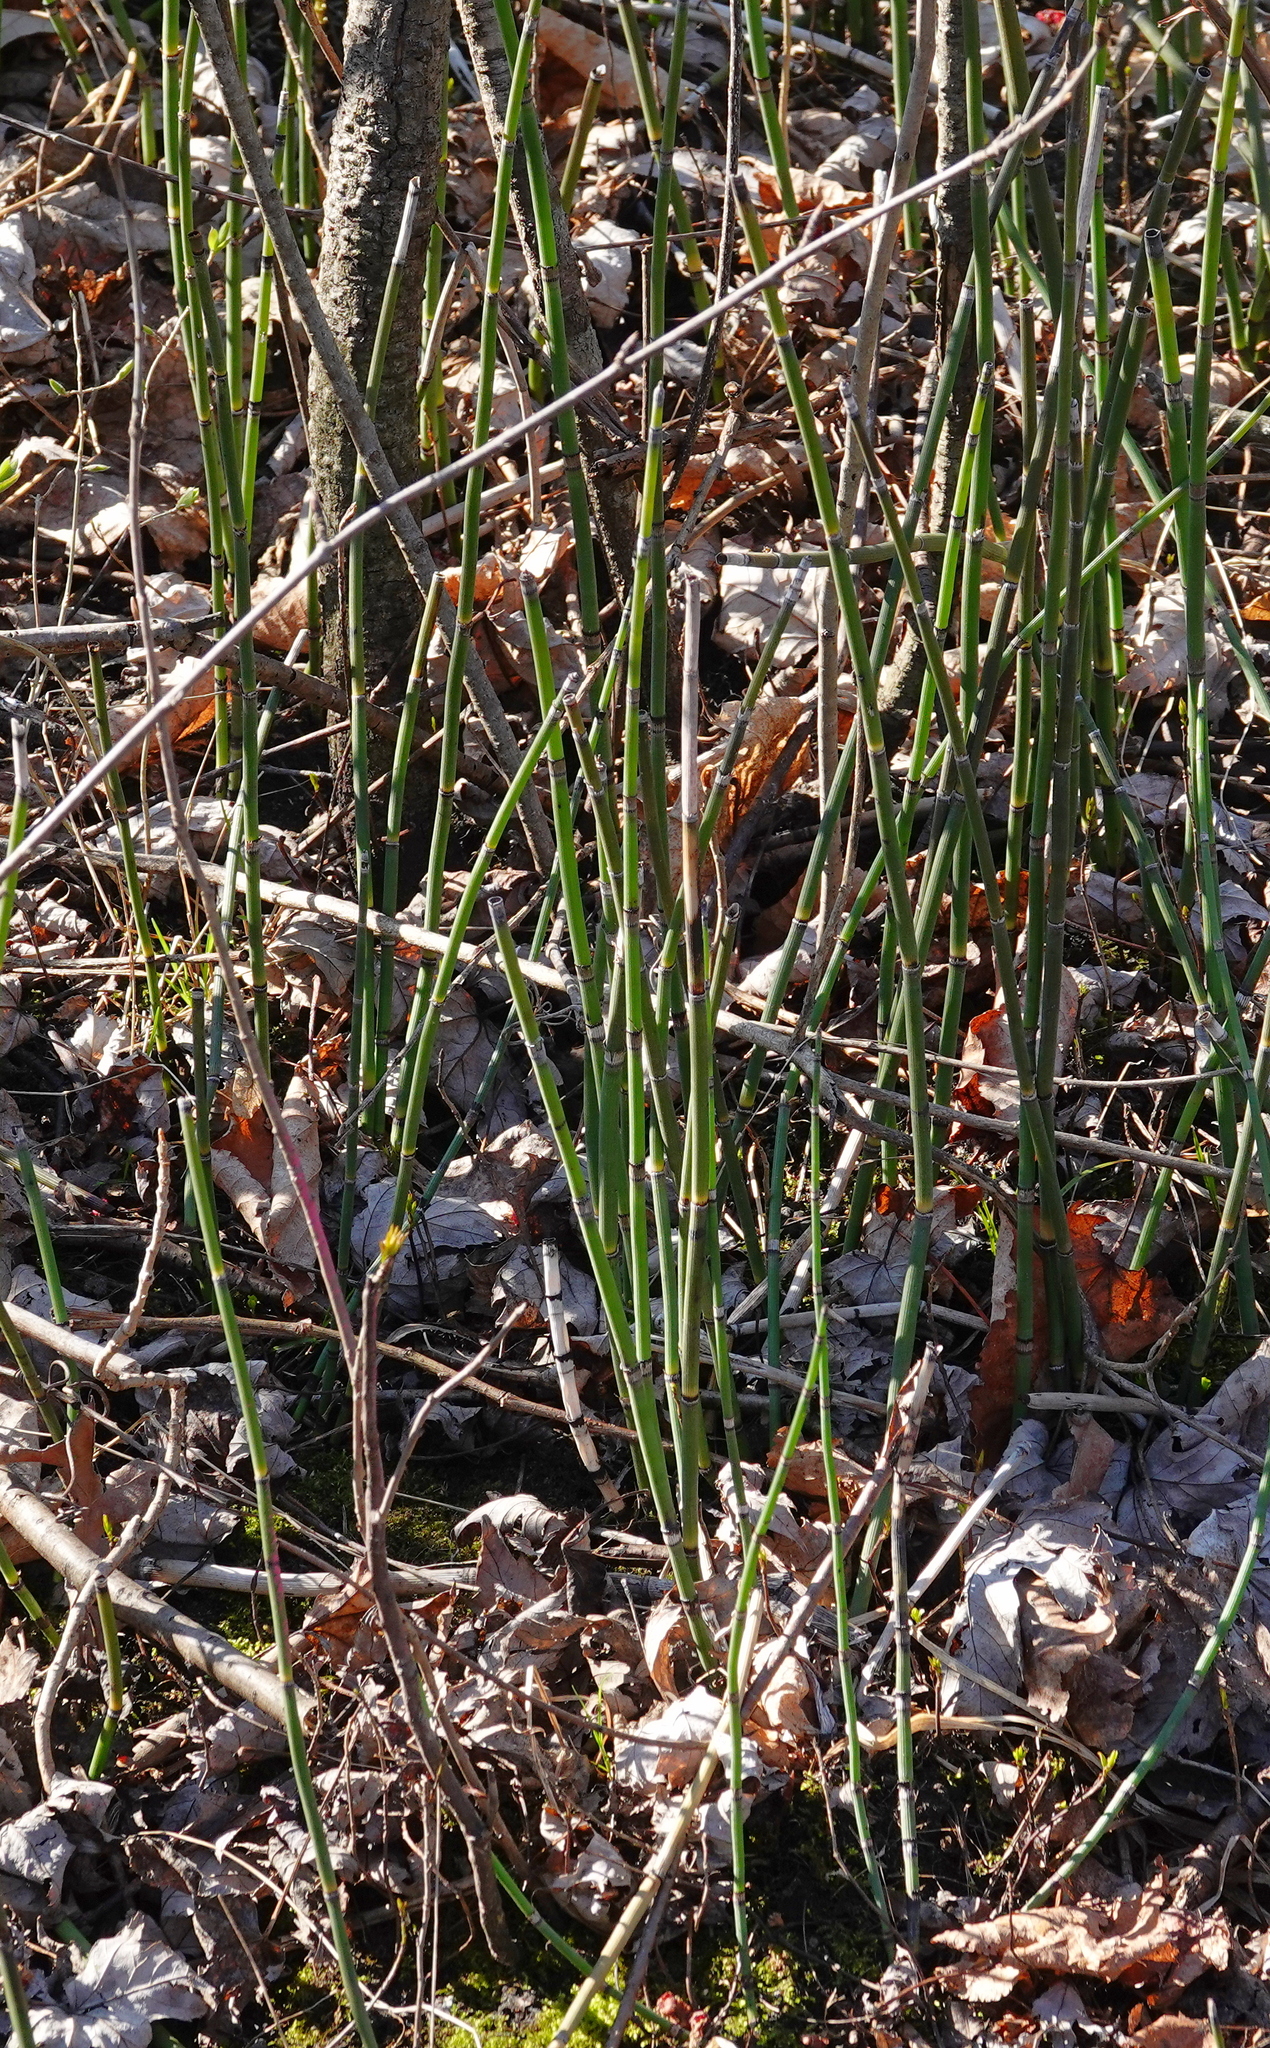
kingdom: Plantae
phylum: Tracheophyta
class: Polypodiopsida
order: Equisetales
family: Equisetaceae
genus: Equisetum
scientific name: Equisetum praealtum
